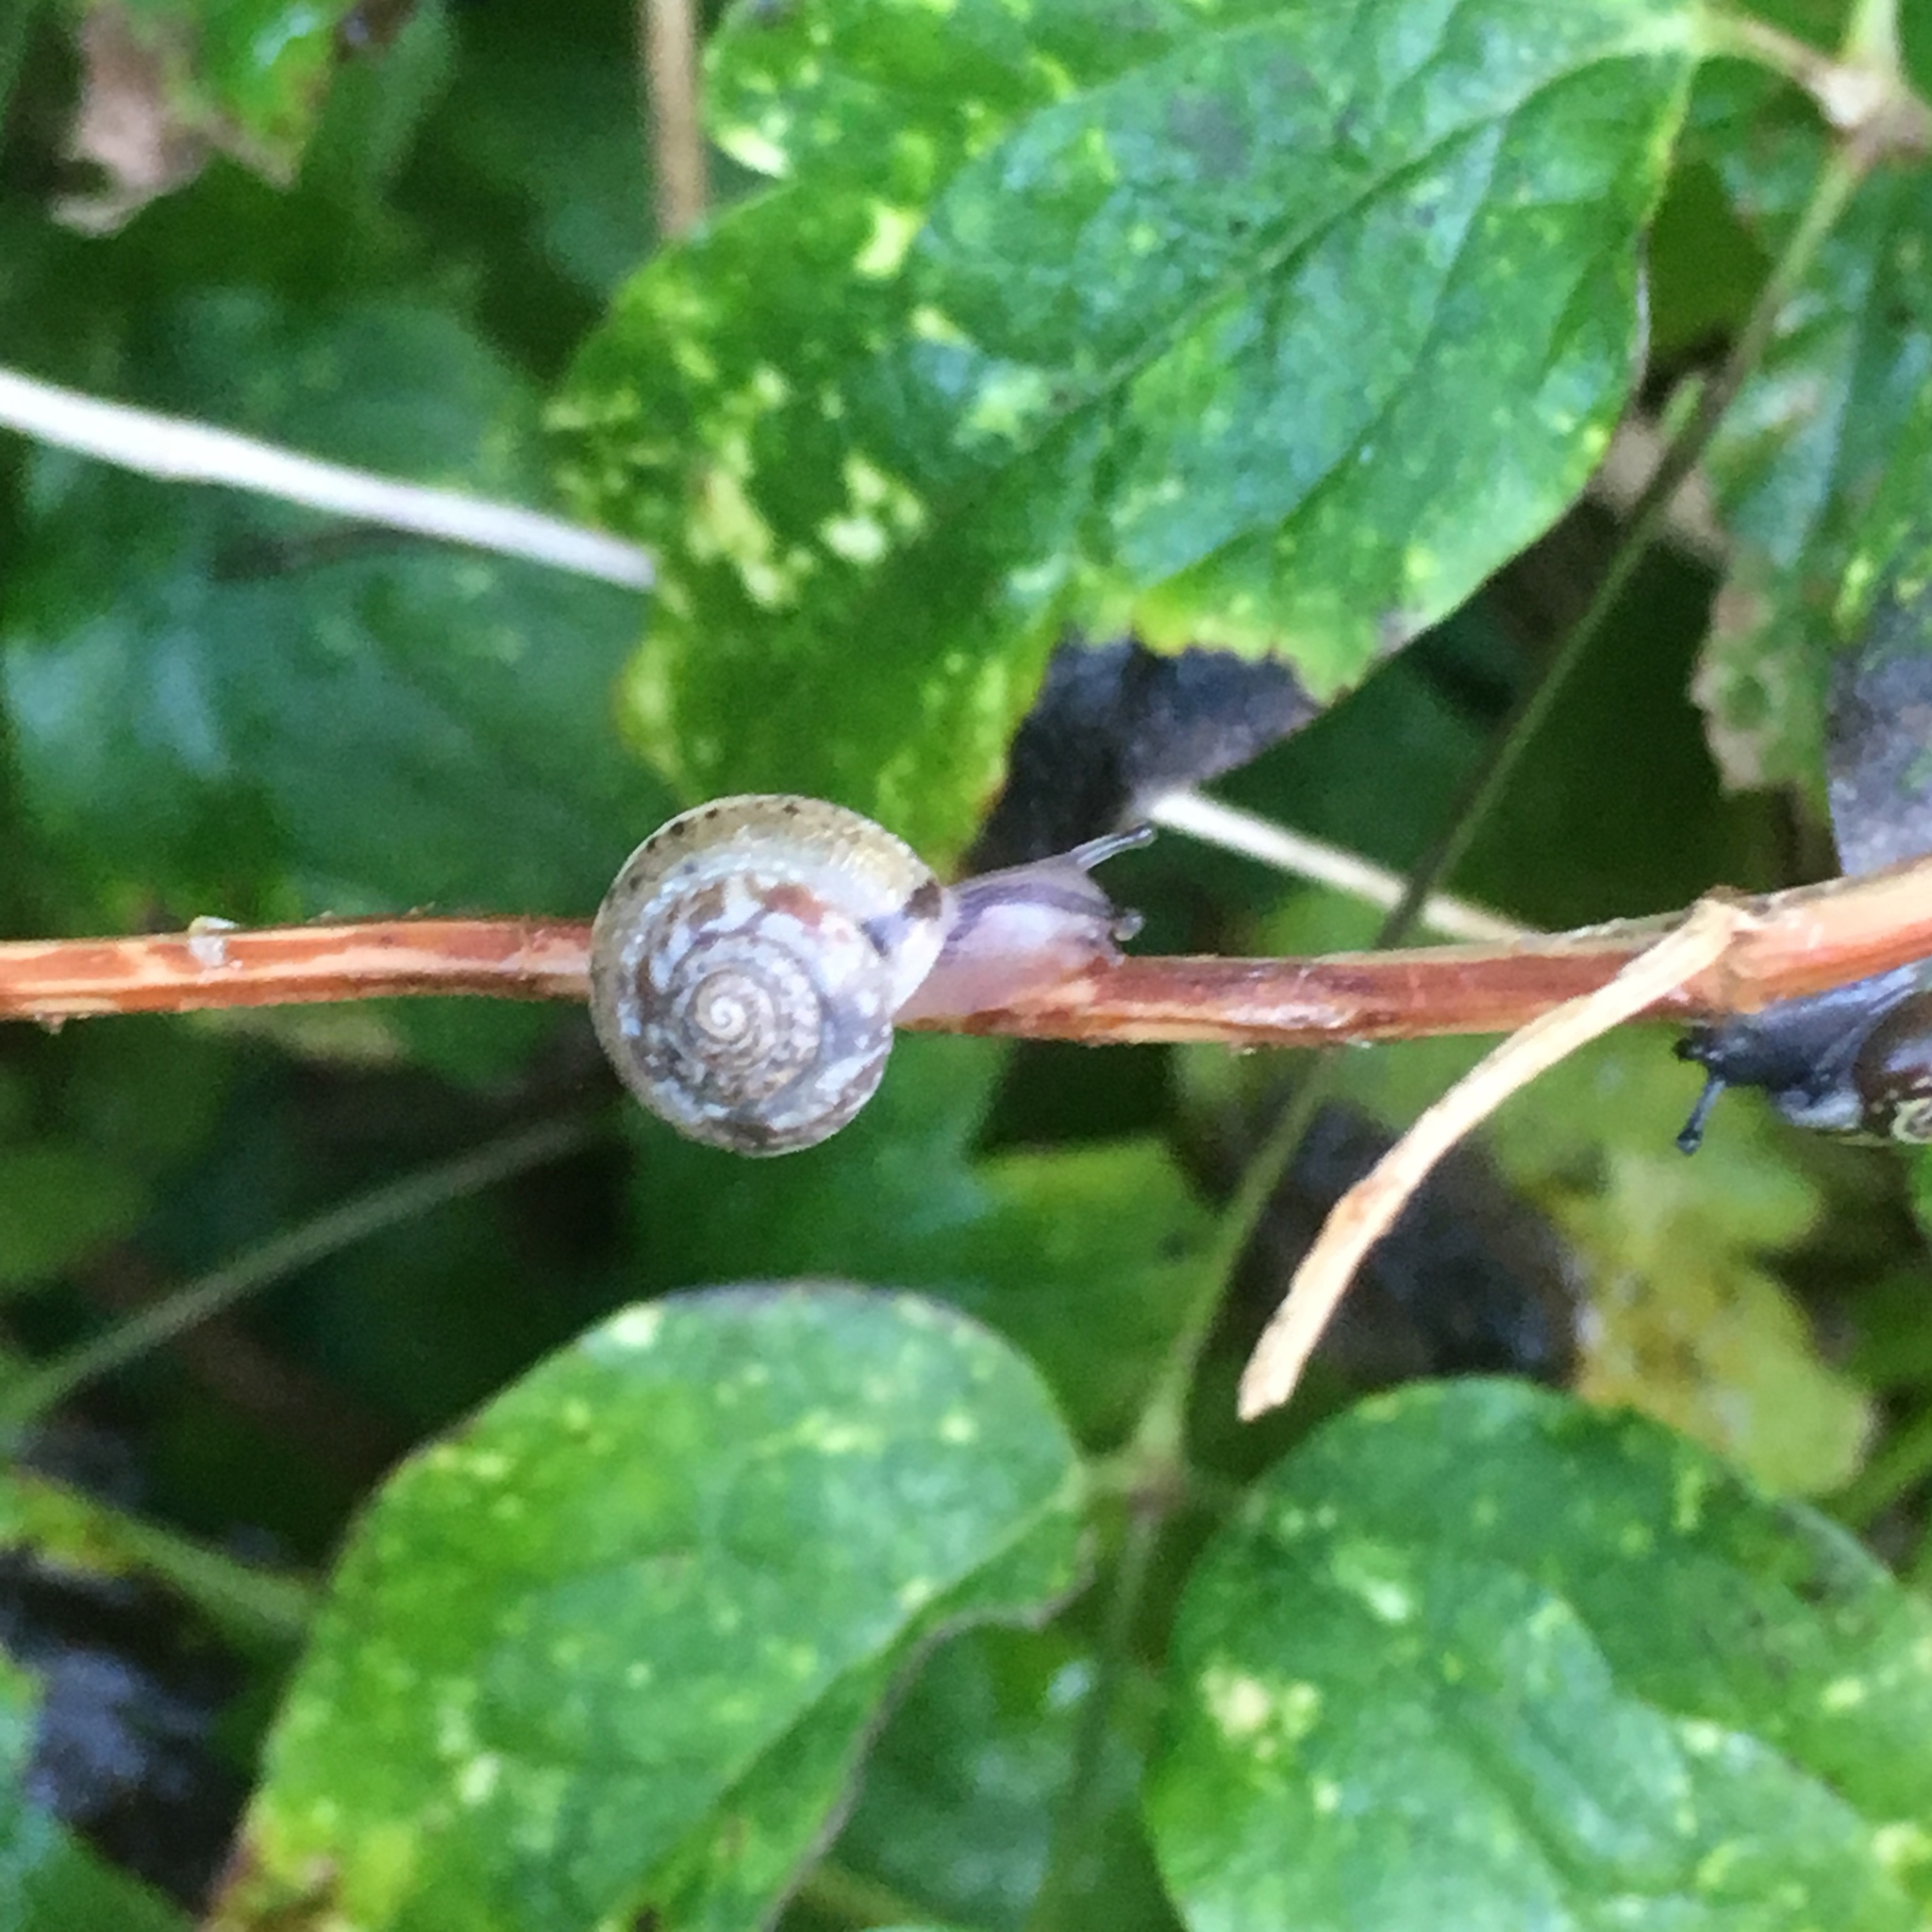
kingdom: Animalia
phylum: Mollusca
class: Gastropoda
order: Stylommatophora
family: Hygromiidae
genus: Hygromia
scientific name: Hygromia cinctella
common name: Girdled snail
